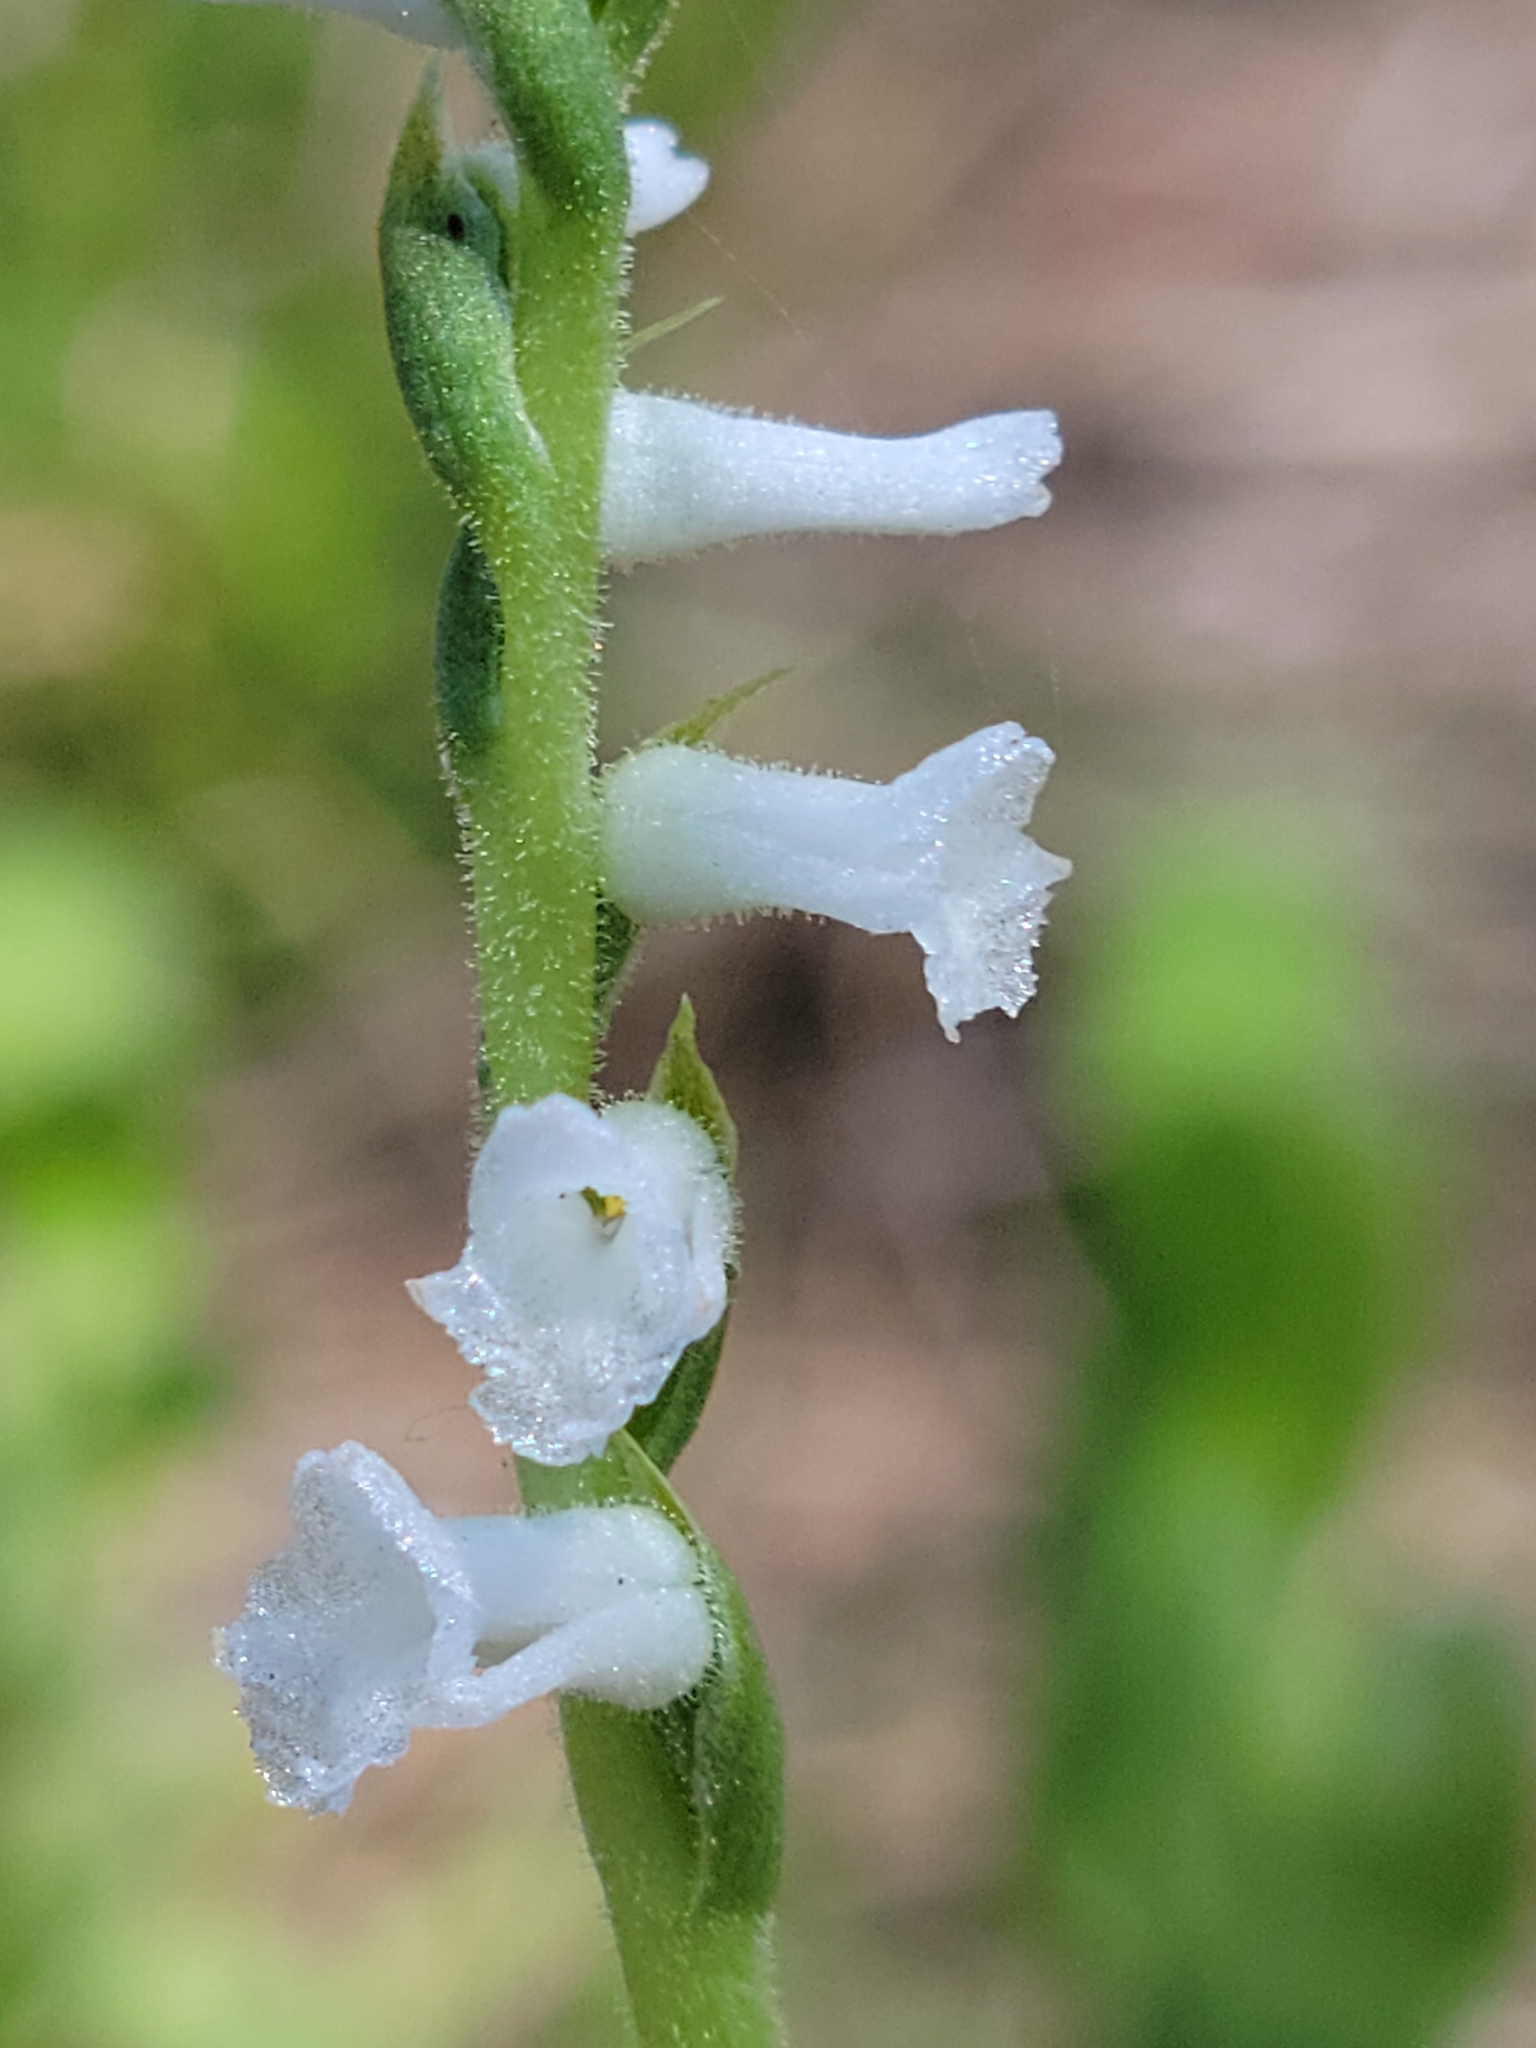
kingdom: Plantae
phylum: Tracheophyta
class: Liliopsida
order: Asparagales
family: Orchidaceae
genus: Spiranthes
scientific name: Spiranthes praecox
